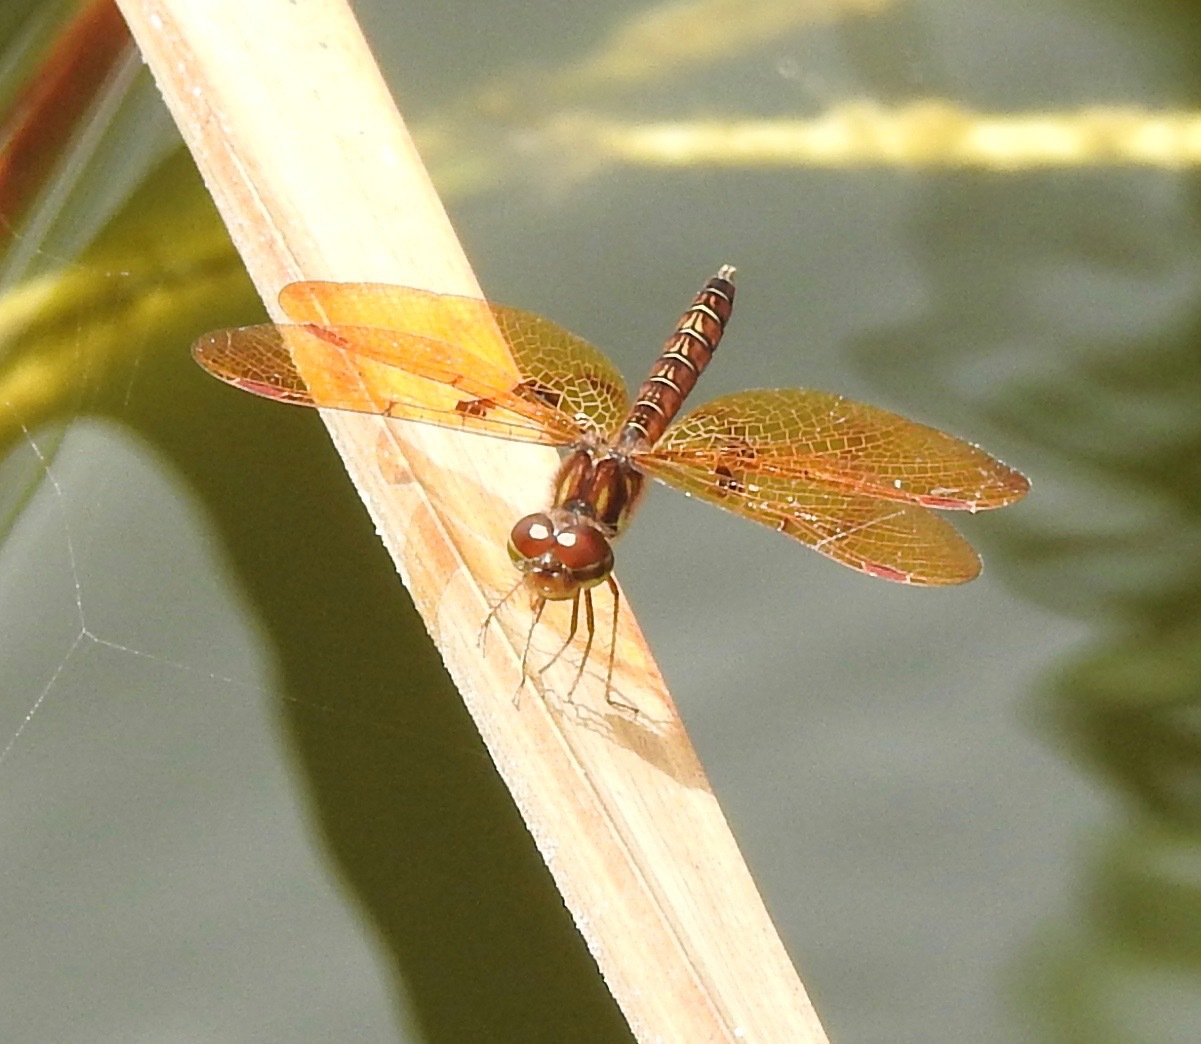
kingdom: Animalia
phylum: Arthropoda
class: Insecta
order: Odonata
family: Libellulidae
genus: Perithemis
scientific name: Perithemis tenera
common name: Eastern amberwing
